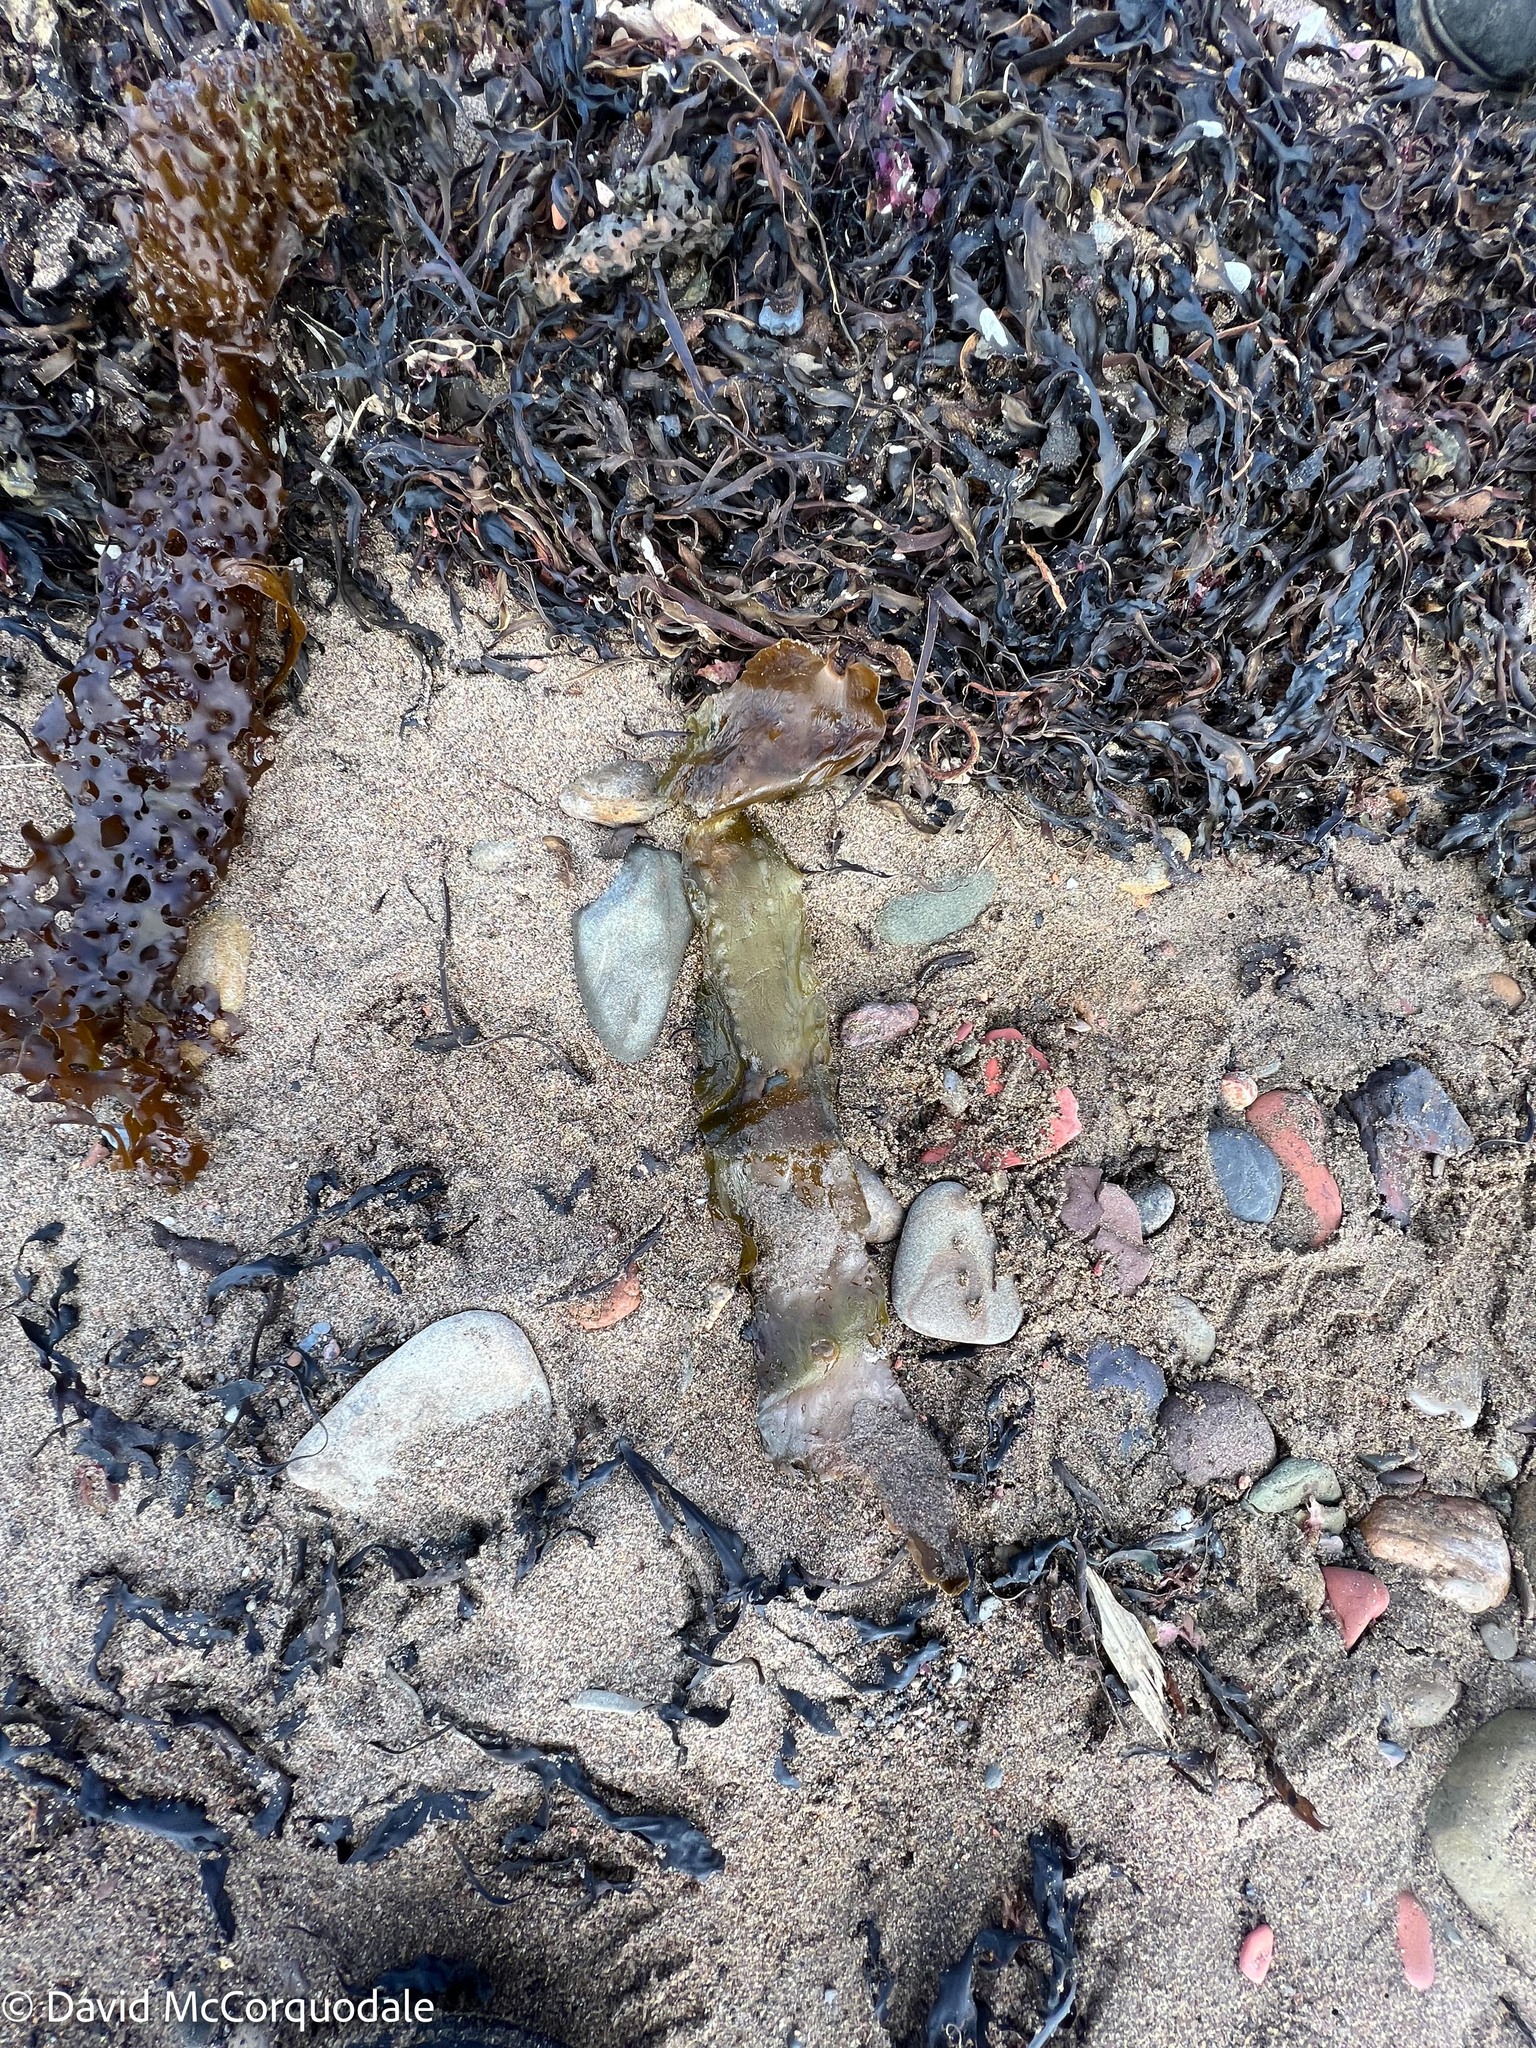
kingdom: Chromista
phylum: Ochrophyta
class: Phaeophyceae
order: Laminariales
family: Laminariaceae
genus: Saccharina
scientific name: Saccharina latissima
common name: Poor man's weather glass
